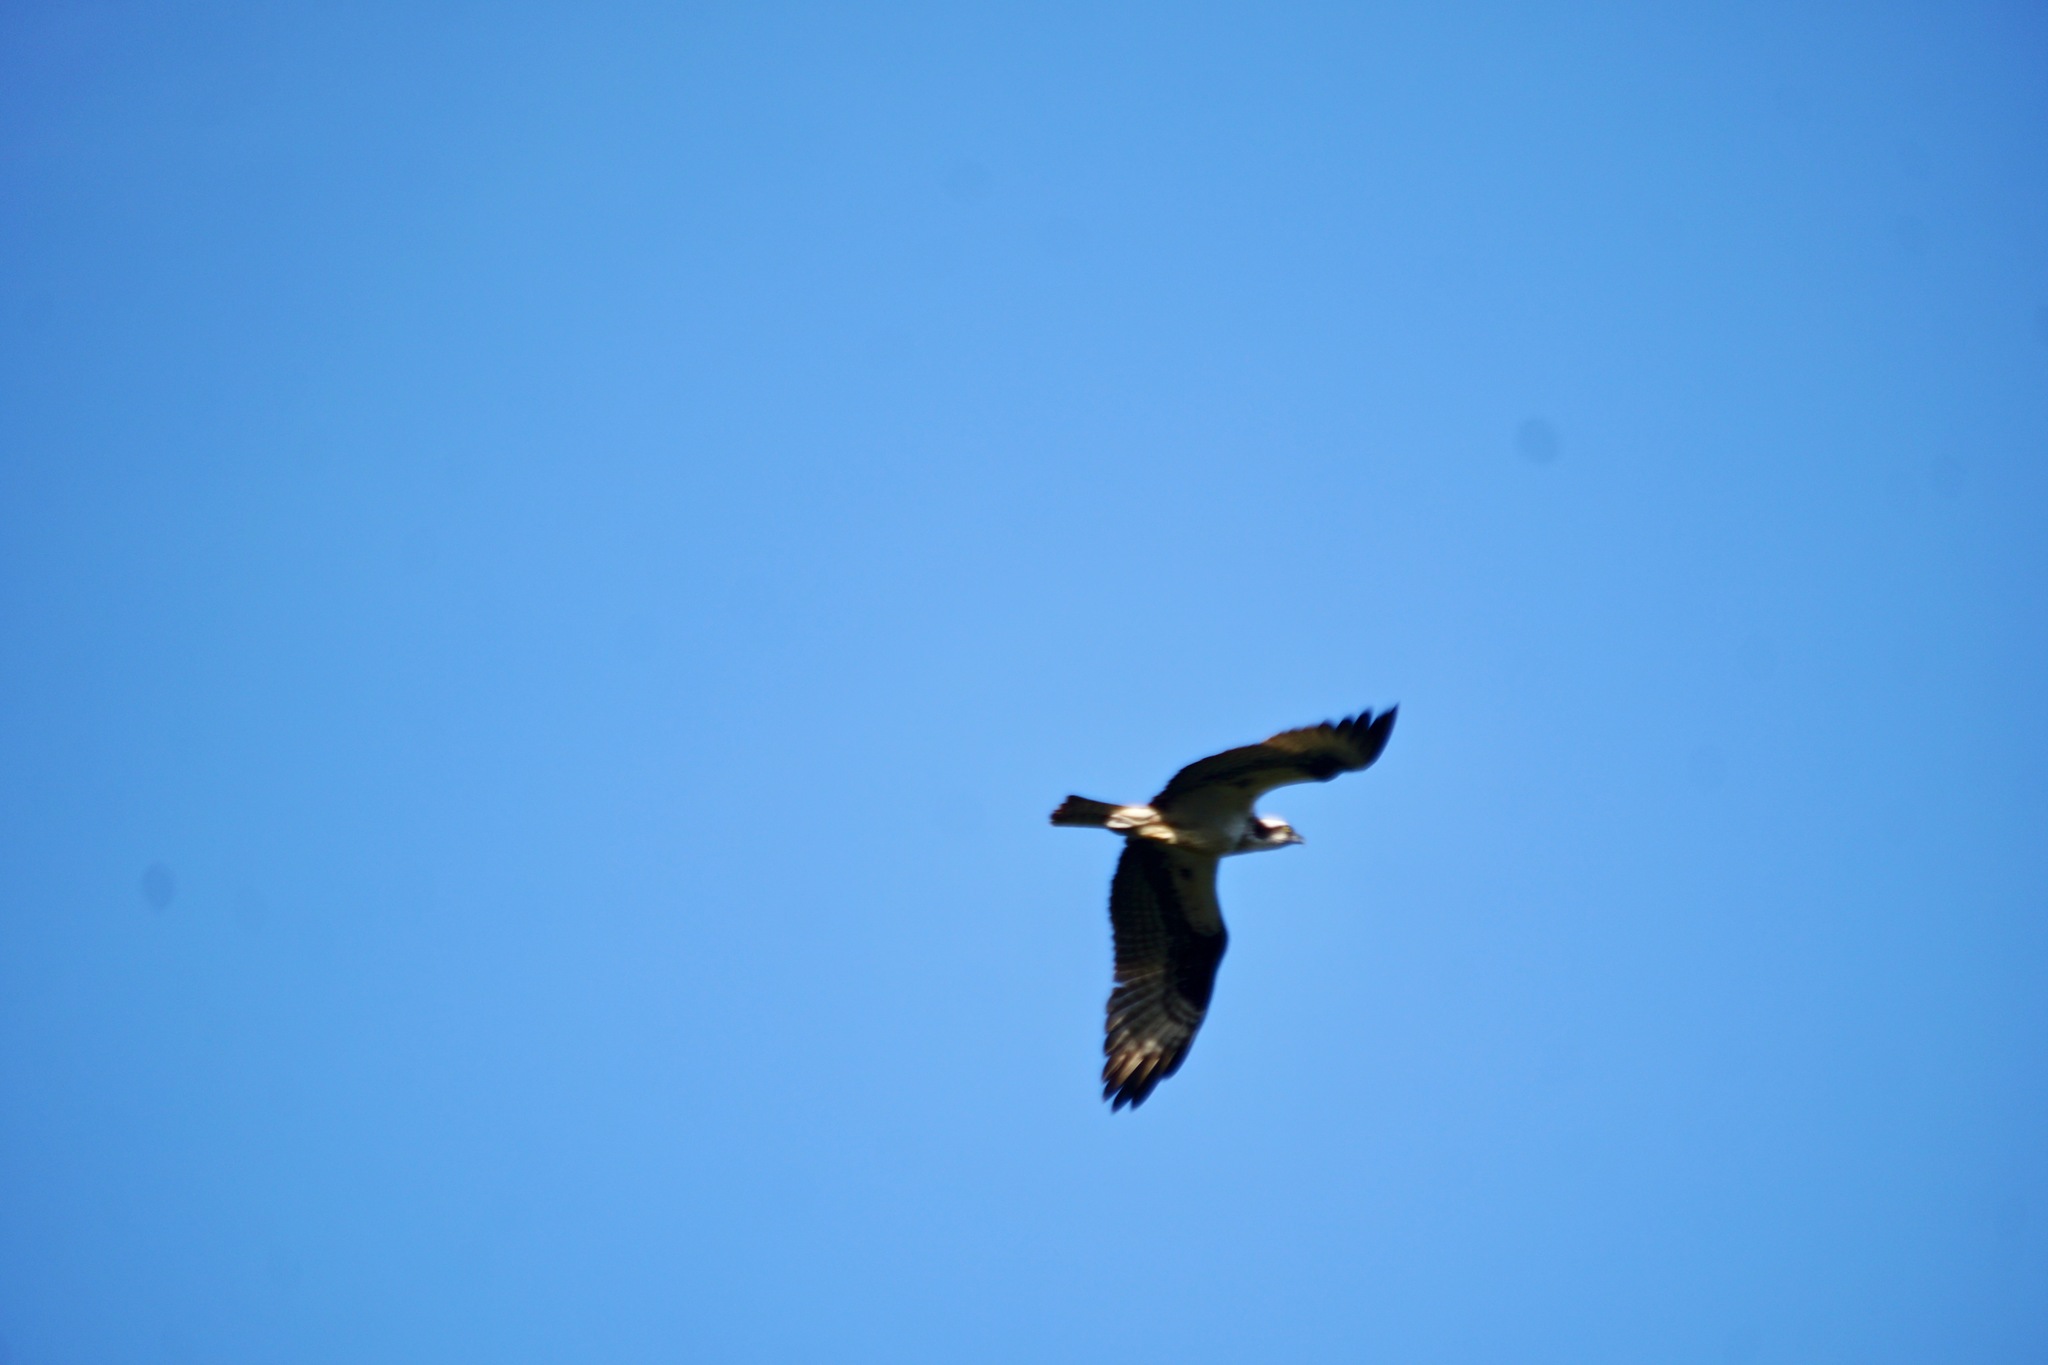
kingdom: Animalia
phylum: Chordata
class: Aves
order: Accipitriformes
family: Pandionidae
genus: Pandion
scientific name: Pandion haliaetus
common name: Osprey
